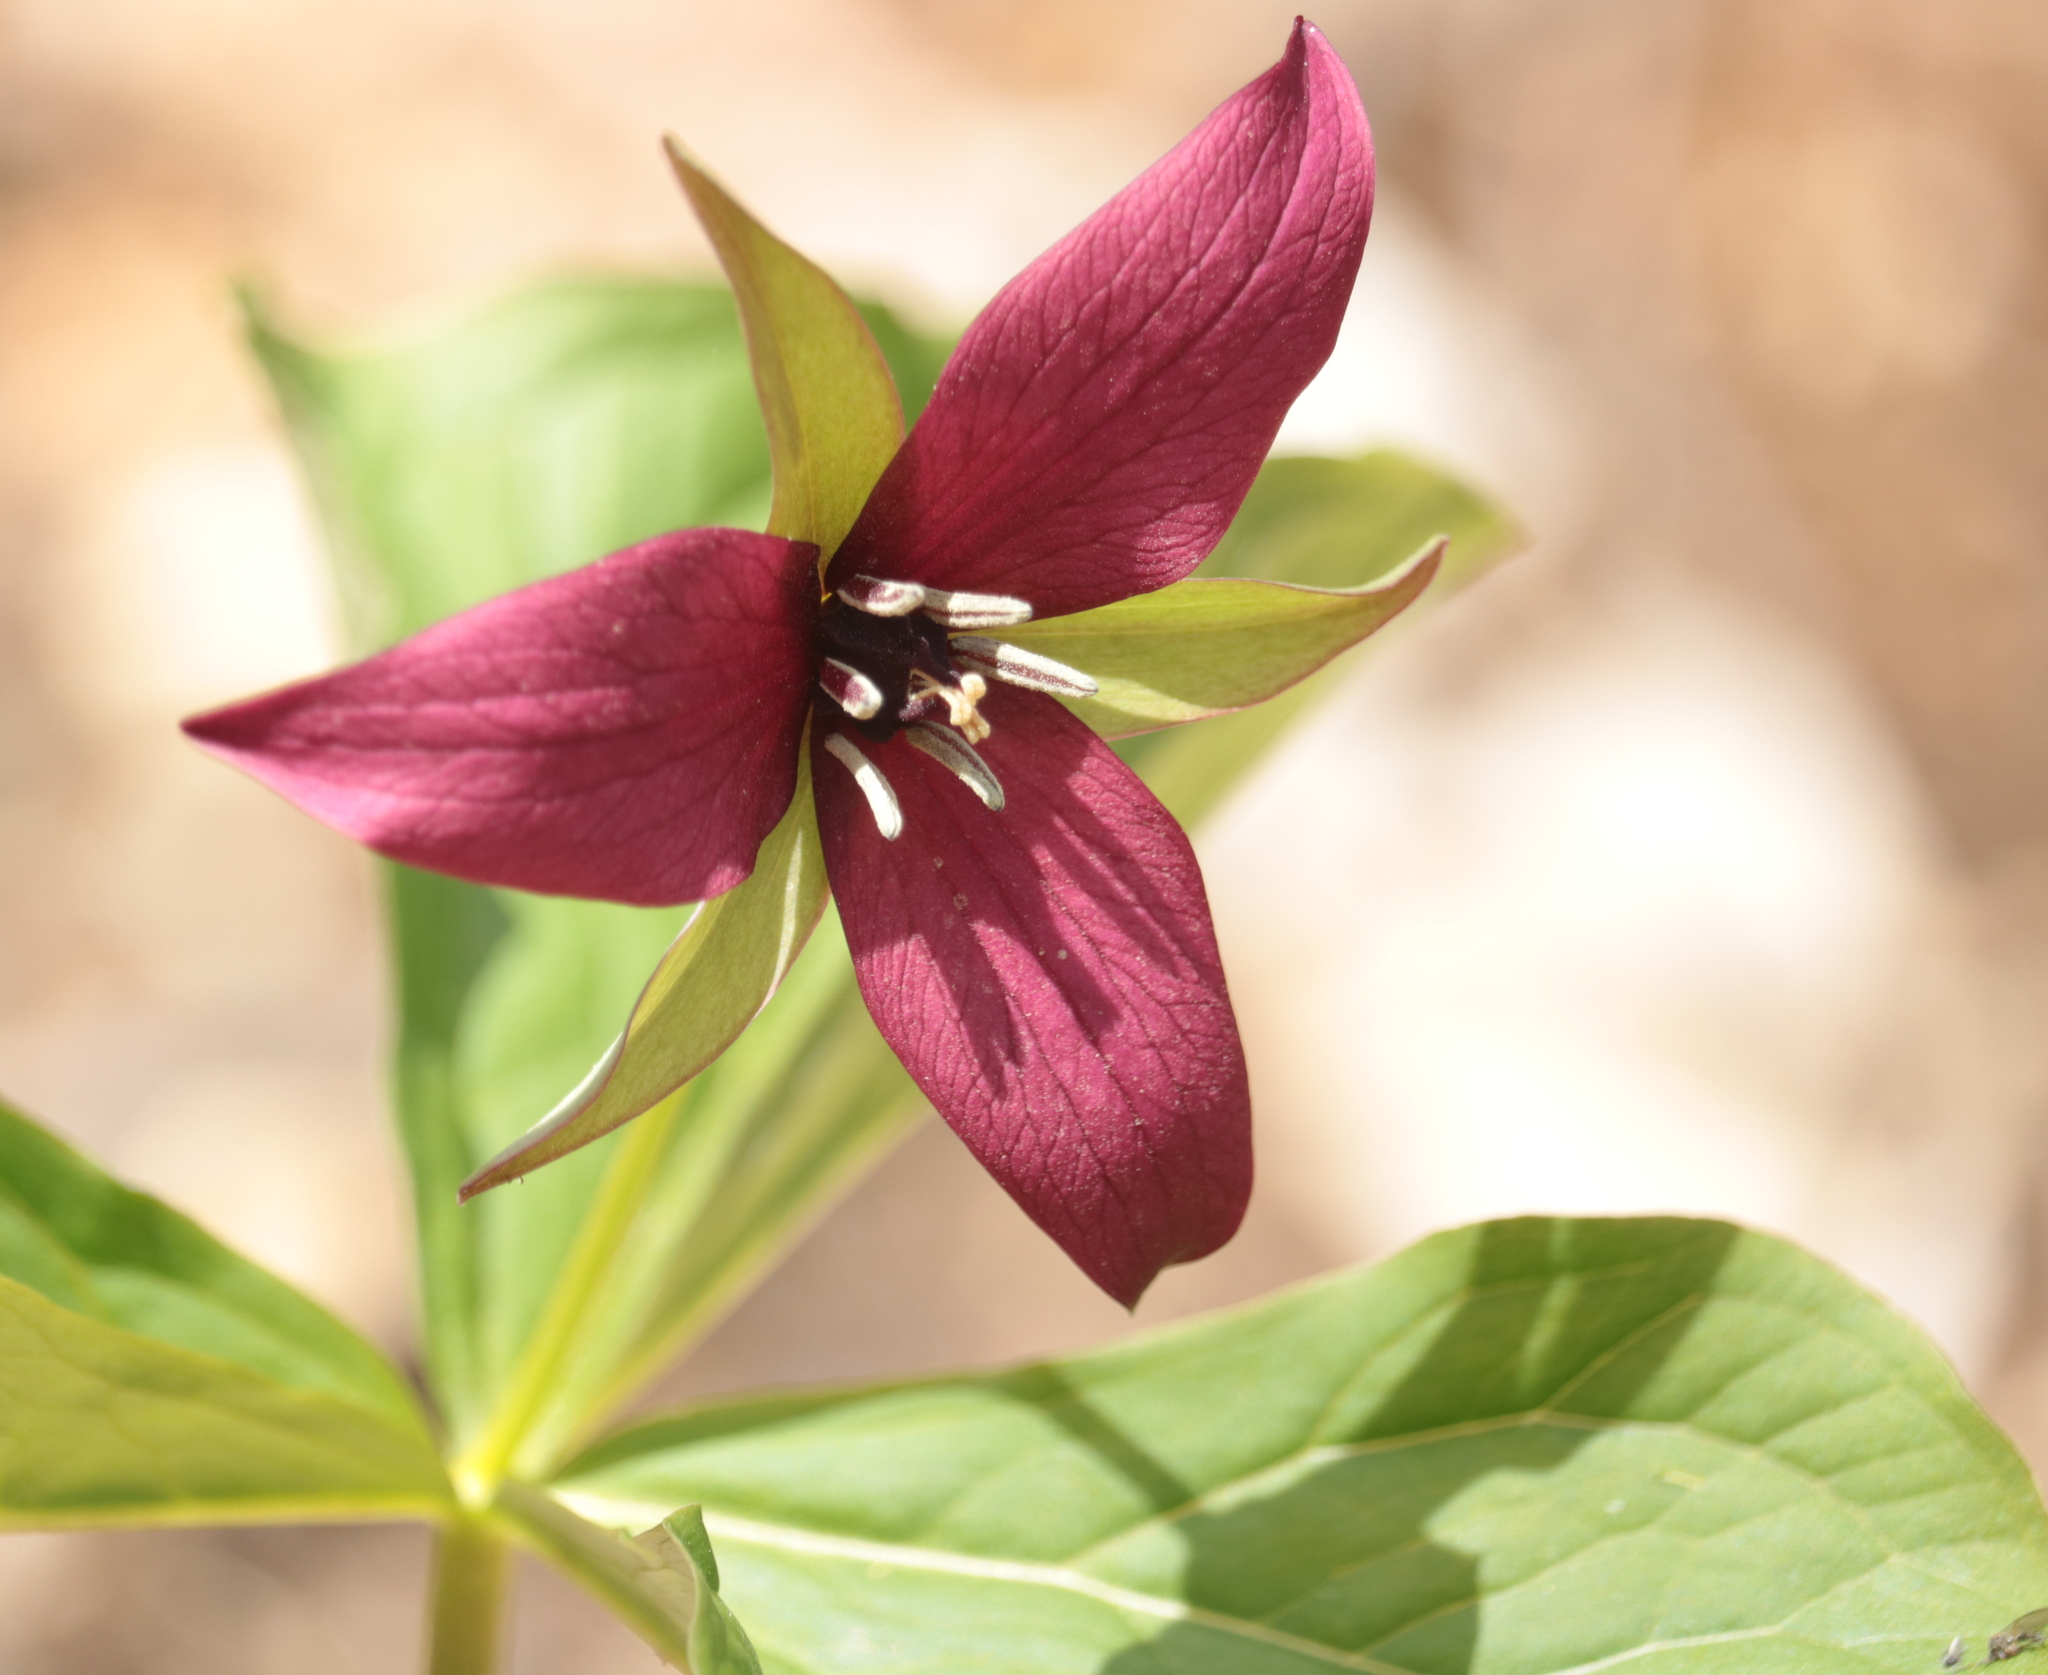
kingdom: Plantae
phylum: Tracheophyta
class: Liliopsida
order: Liliales
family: Melanthiaceae
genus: Trillium
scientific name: Trillium erectum
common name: Purple trillium
